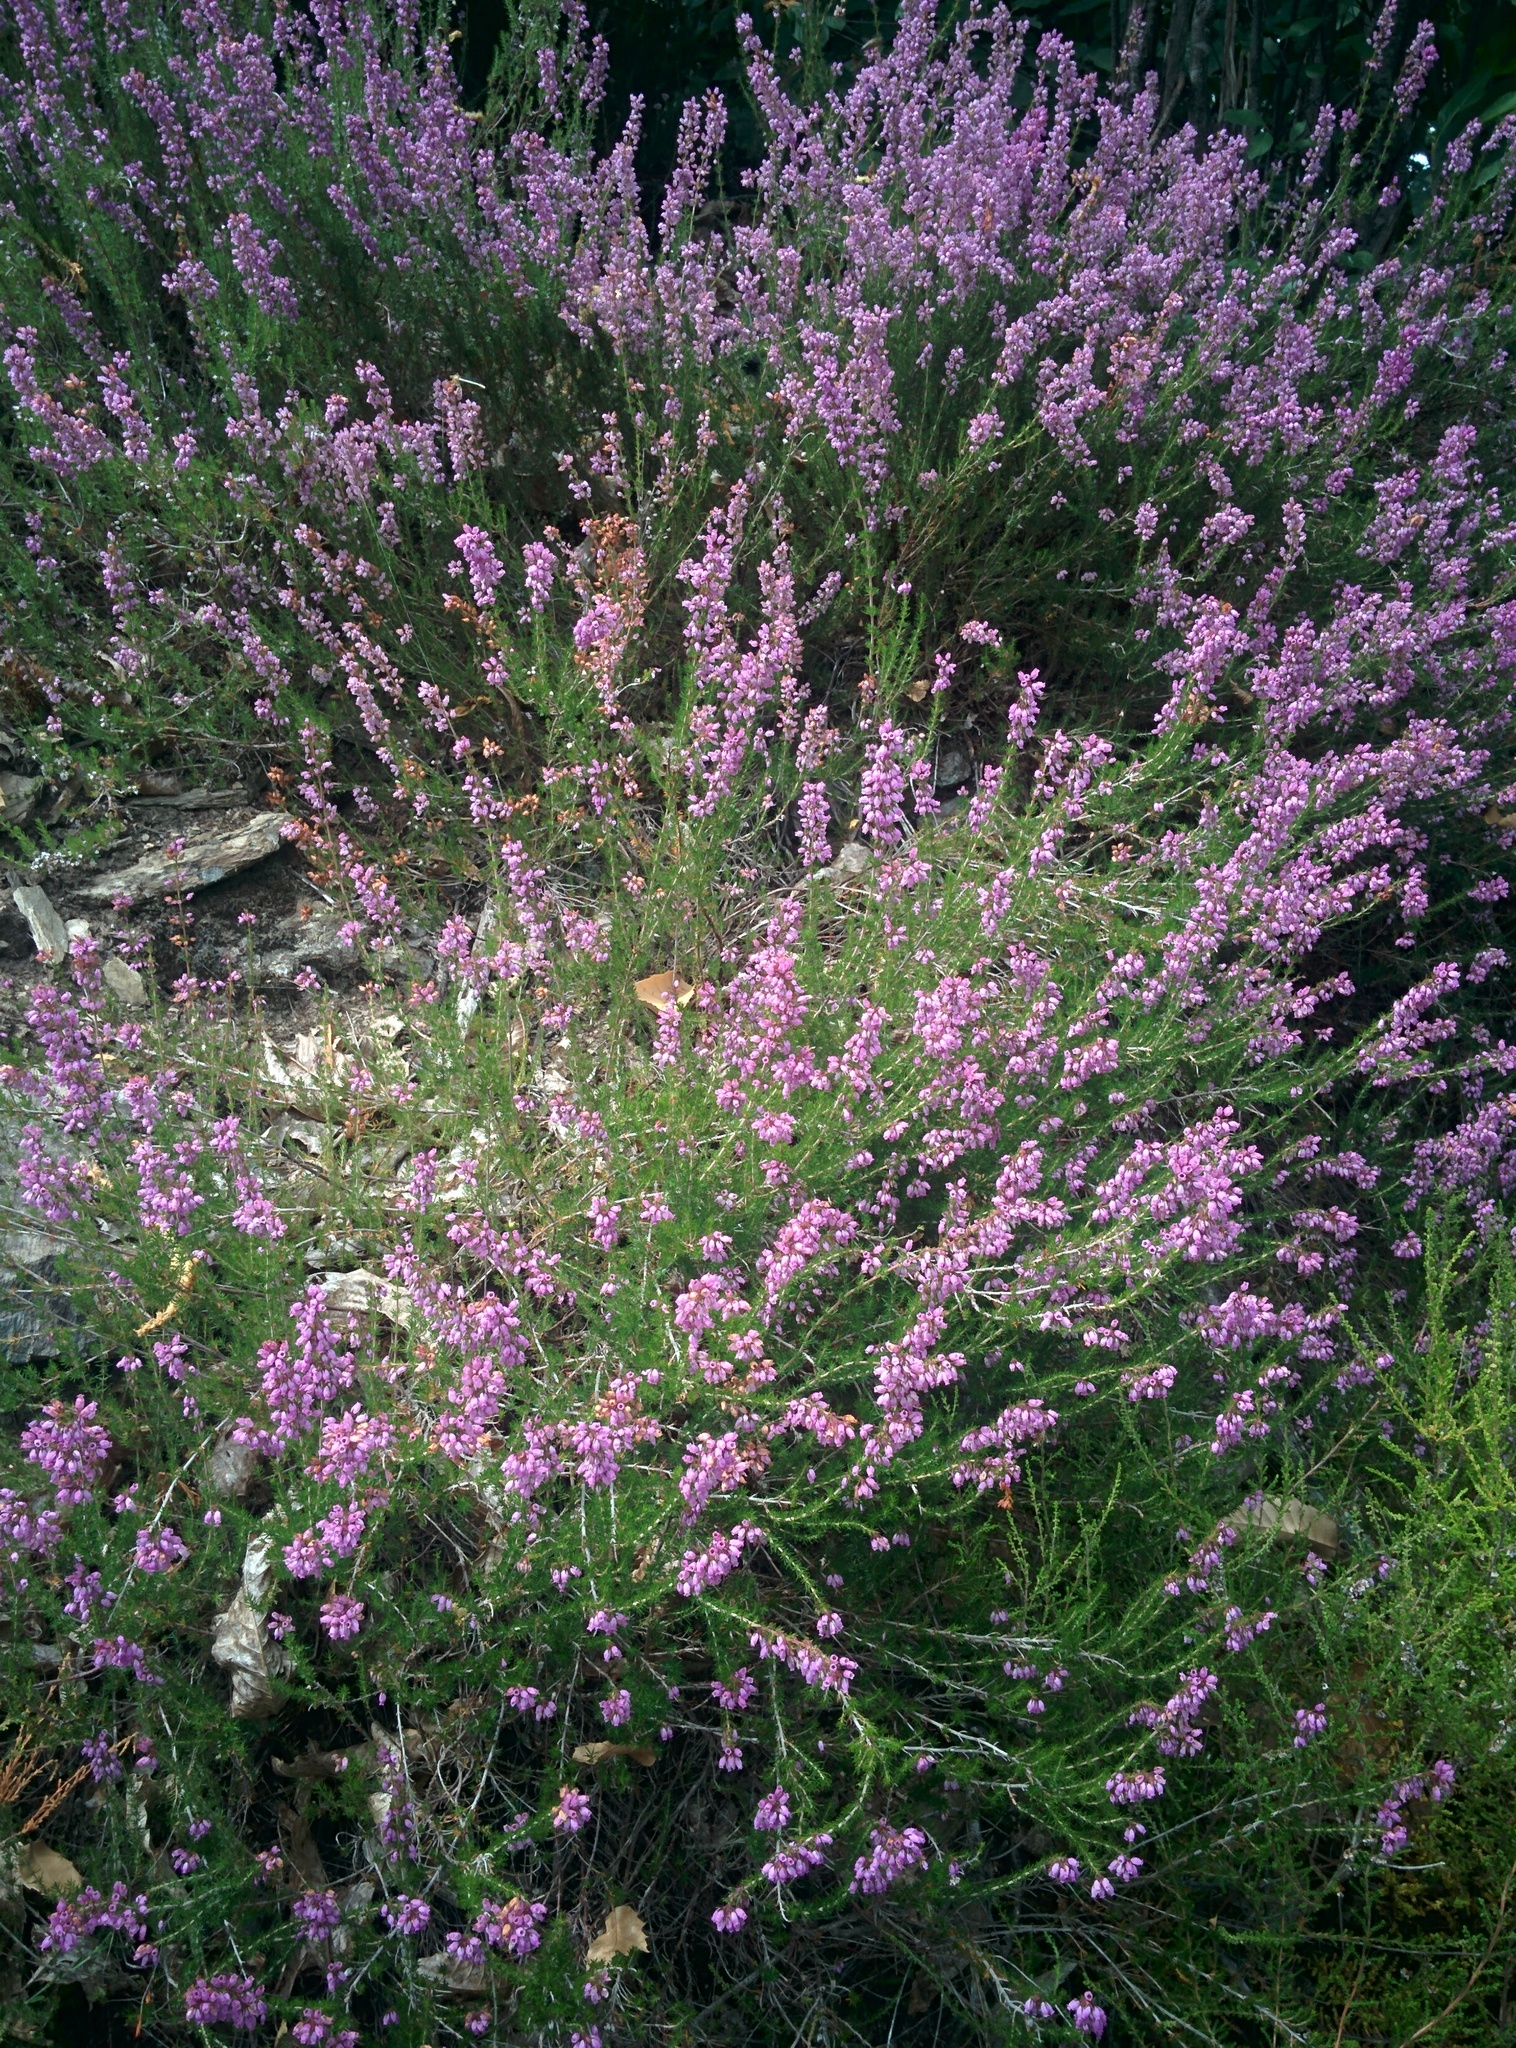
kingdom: Plantae
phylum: Tracheophyta
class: Magnoliopsida
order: Ericales
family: Ericaceae
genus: Erica
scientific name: Erica cinerea
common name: Bell heather
